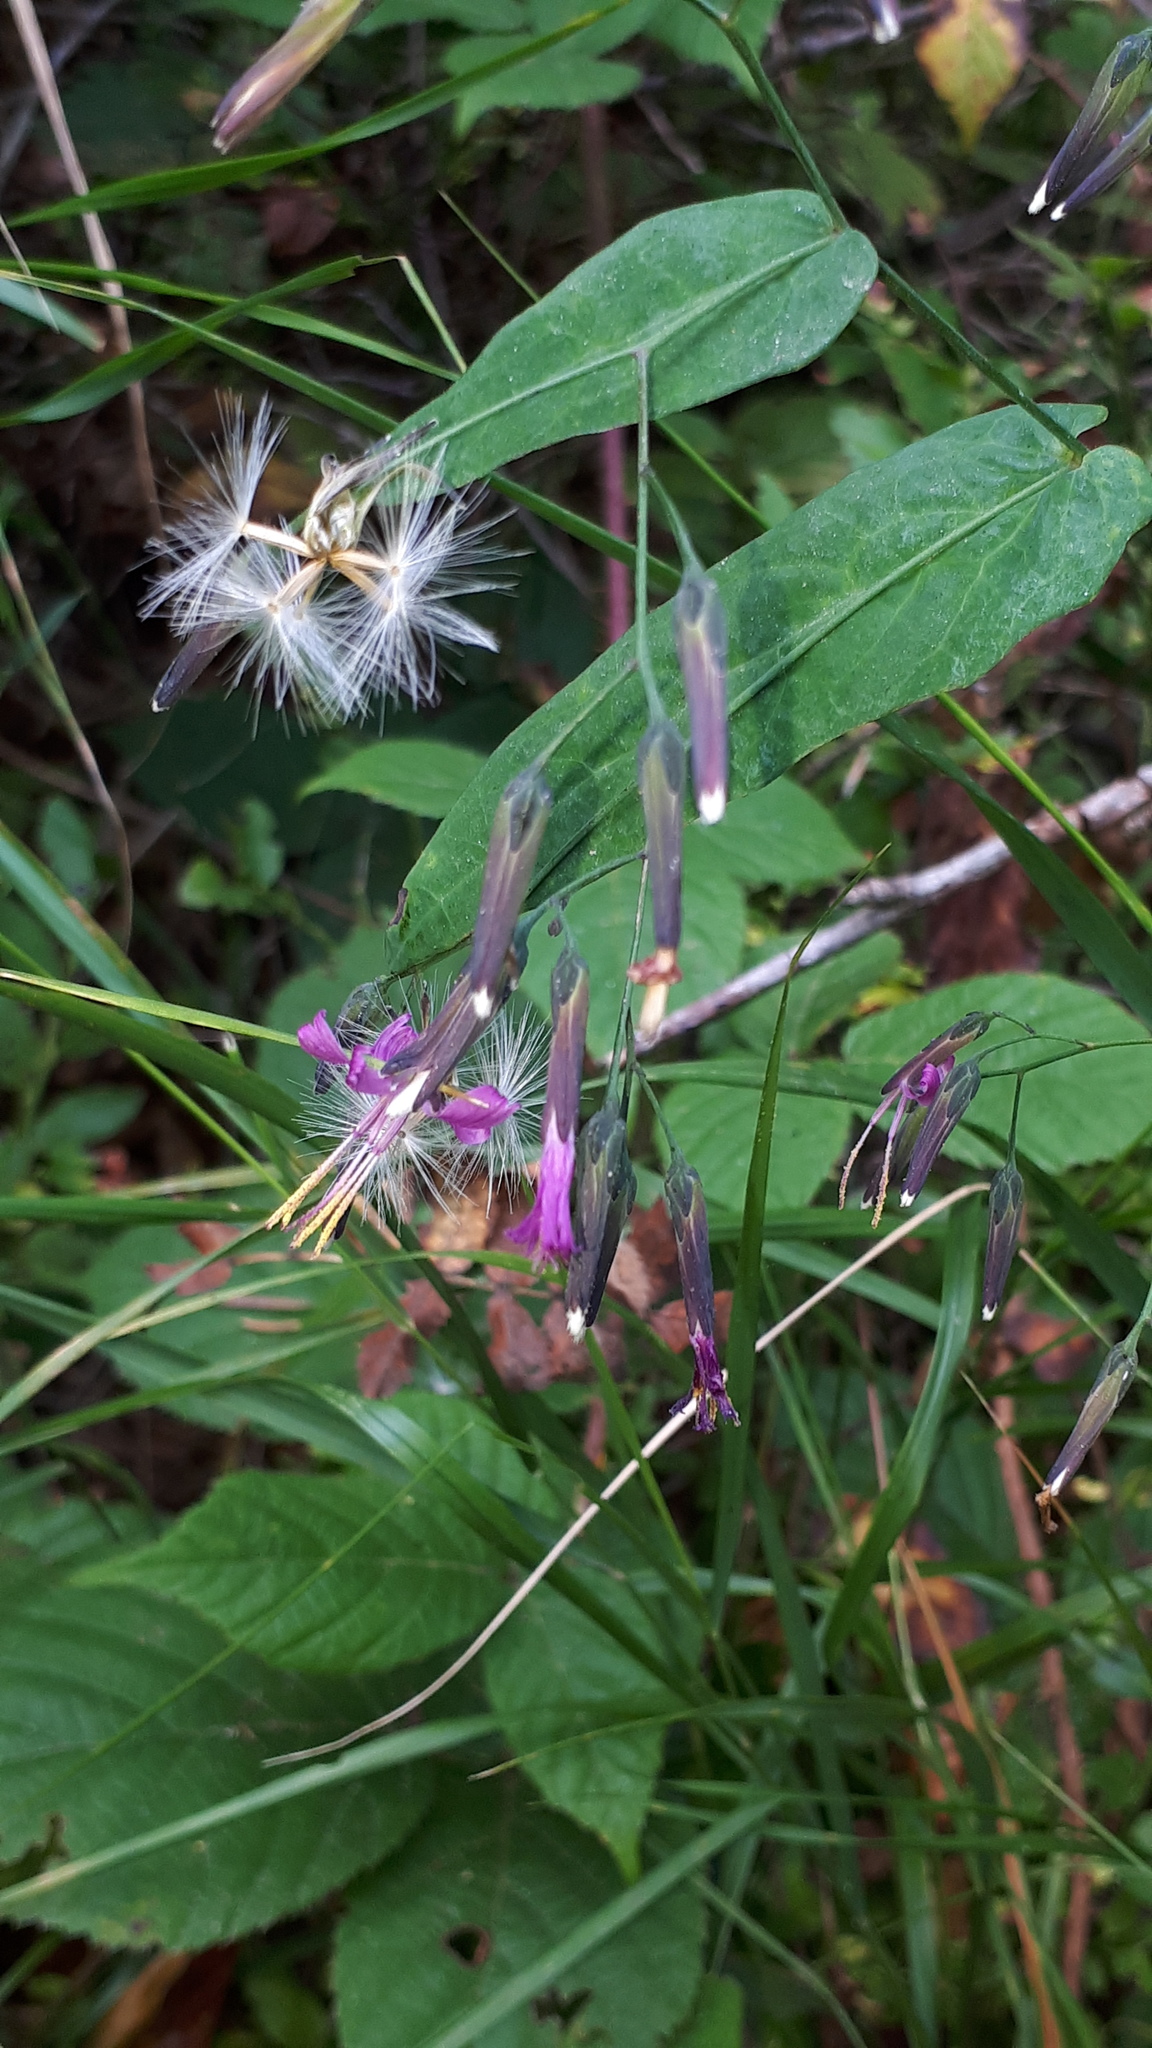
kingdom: Plantae
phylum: Tracheophyta
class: Magnoliopsida
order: Asterales
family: Asteraceae
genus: Prenanthes
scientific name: Prenanthes purpurea
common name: Purple lettuce
